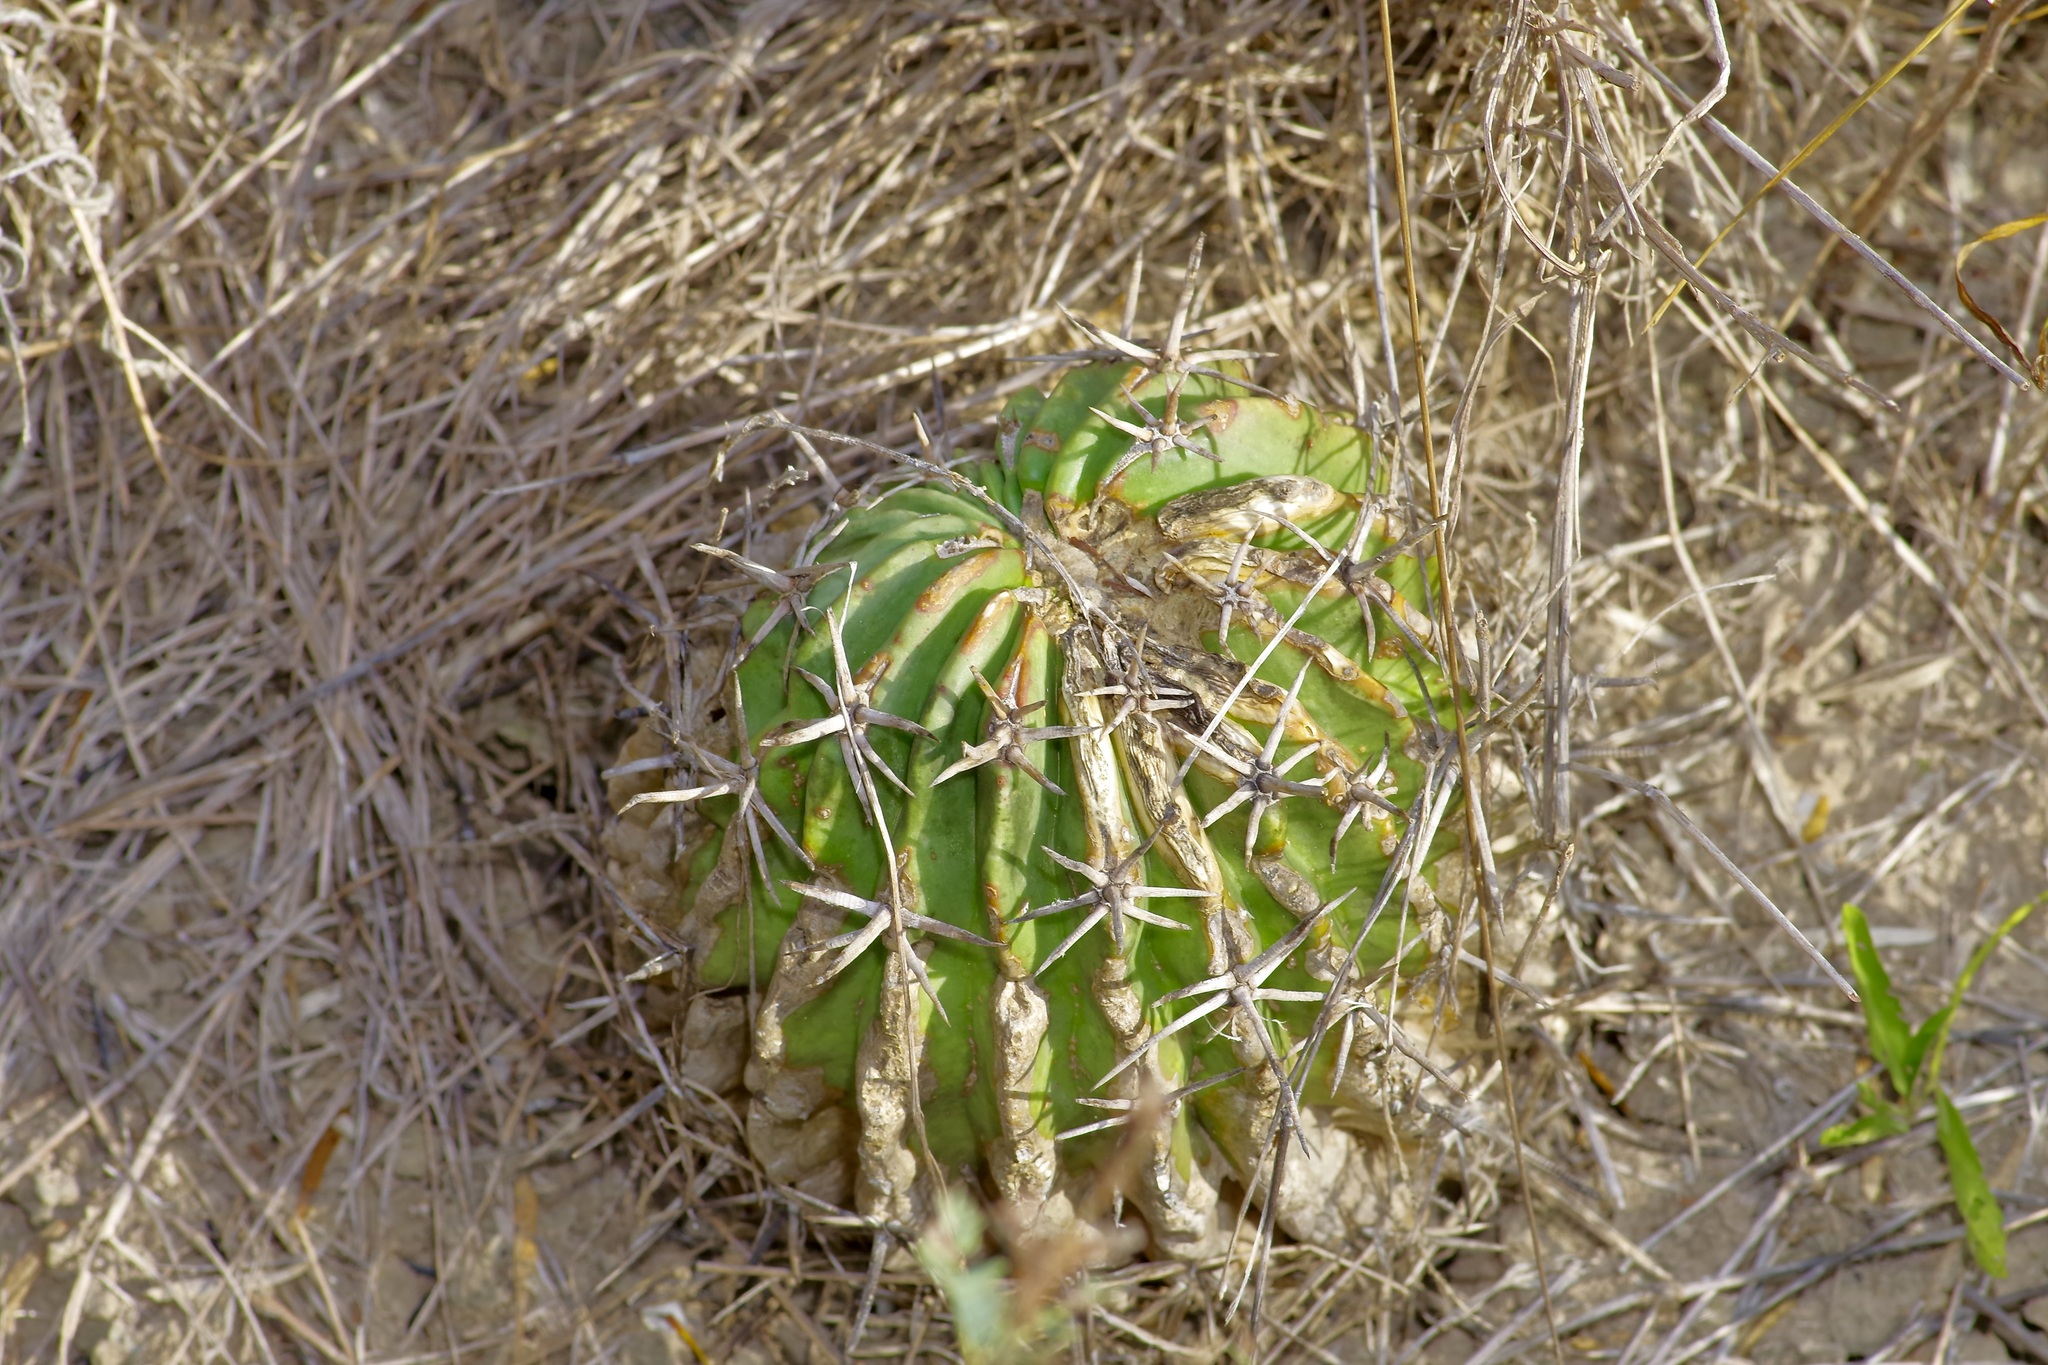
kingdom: Plantae
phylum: Tracheophyta
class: Magnoliopsida
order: Caryophyllales
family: Cactaceae
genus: Echinocactus
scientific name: Echinocactus texensis
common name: Devil's pincushion
